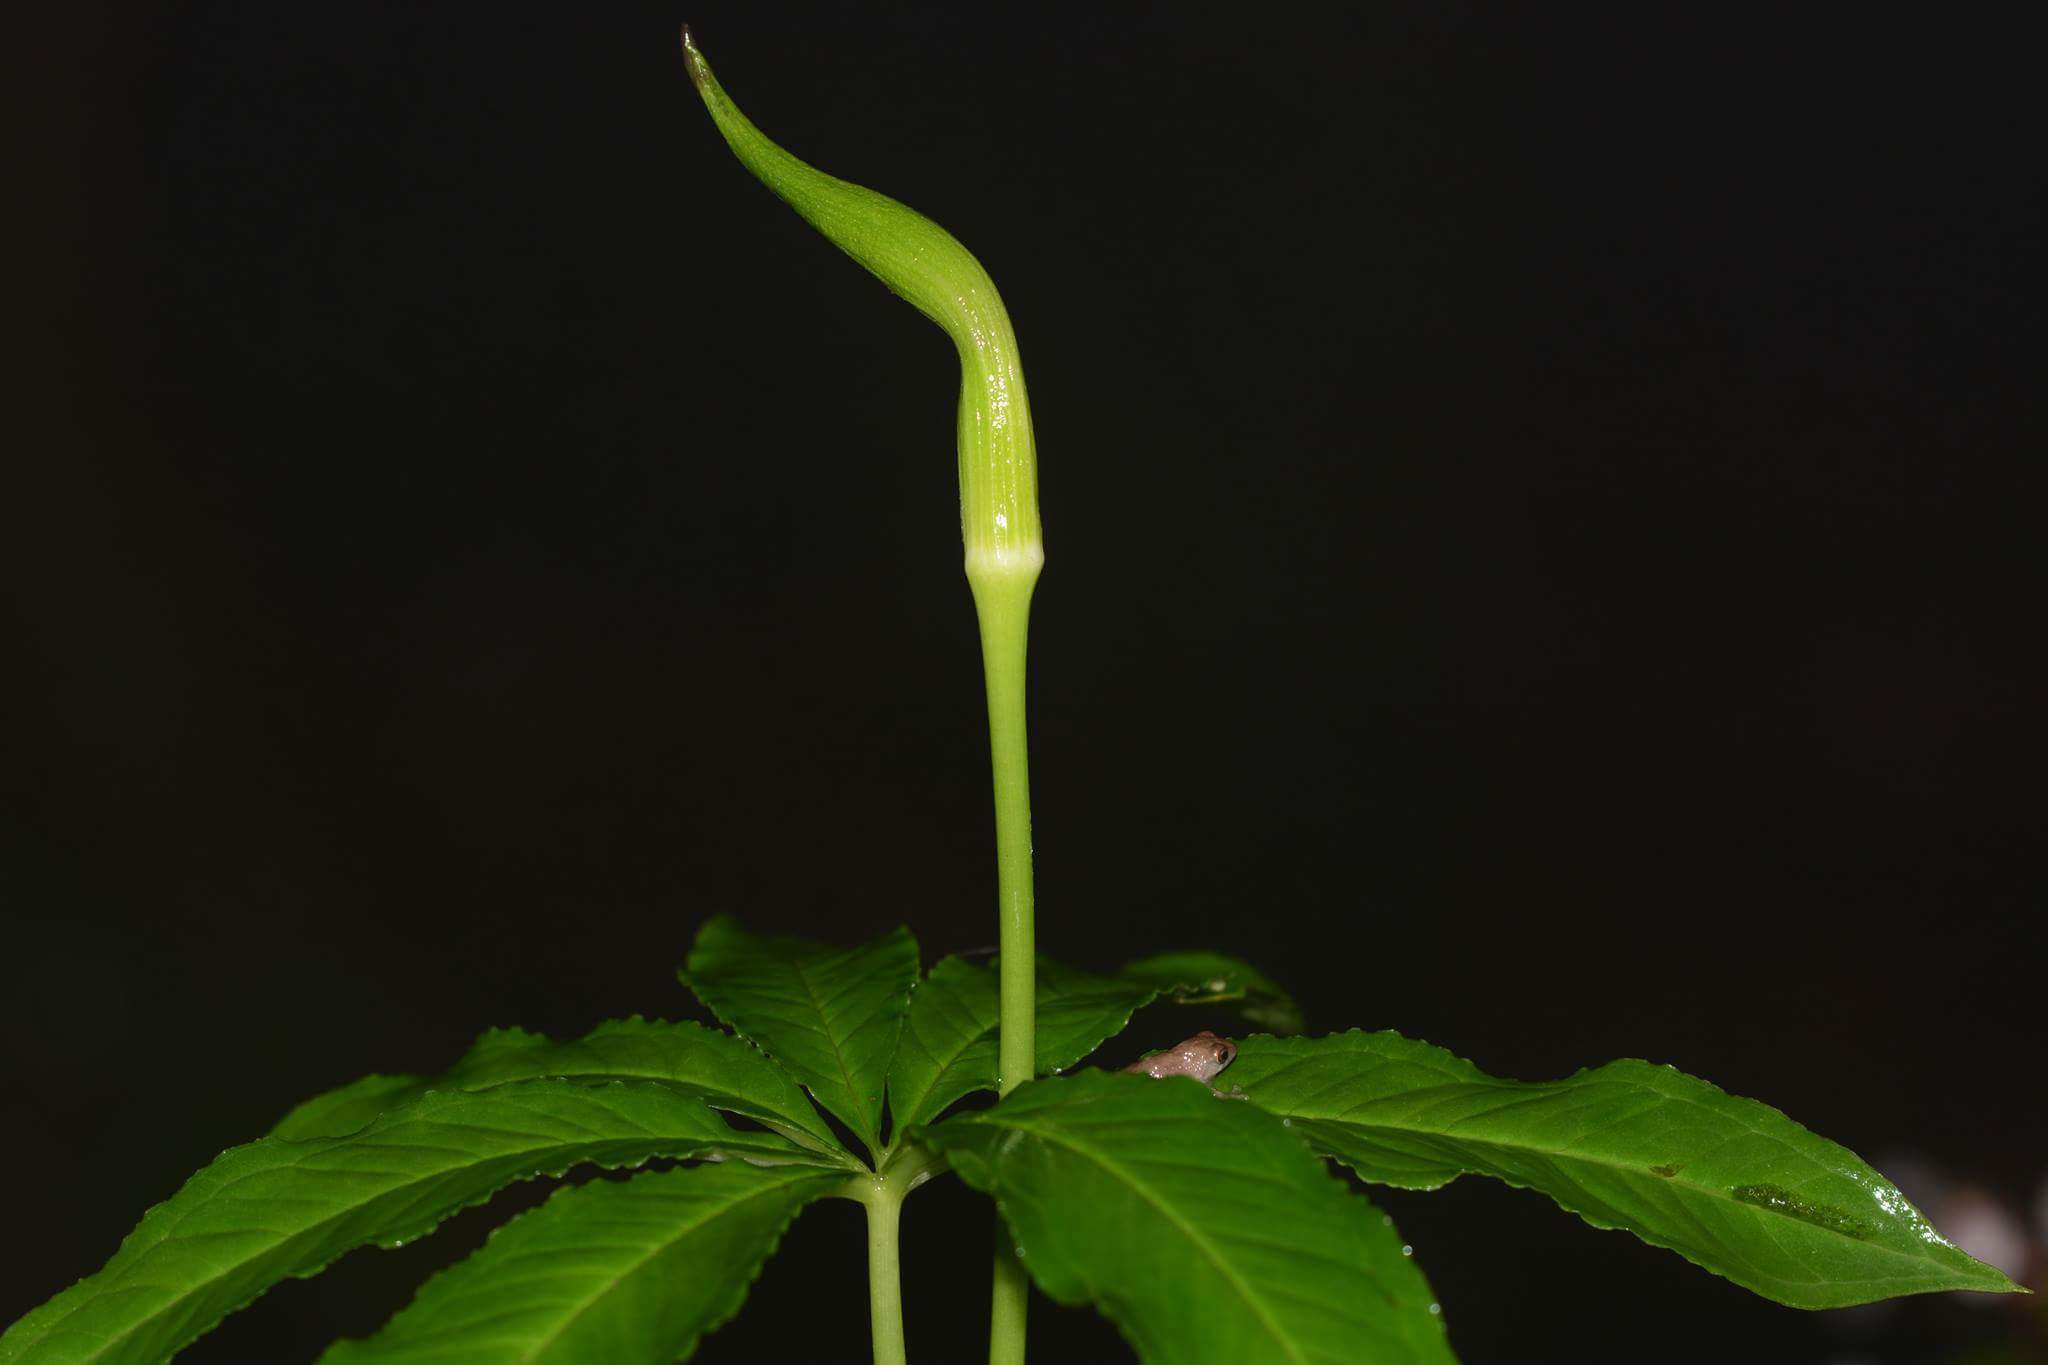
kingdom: Plantae
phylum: Tracheophyta
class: Liliopsida
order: Alismatales
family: Araceae
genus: Arisaema
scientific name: Arisaema tortuosum
